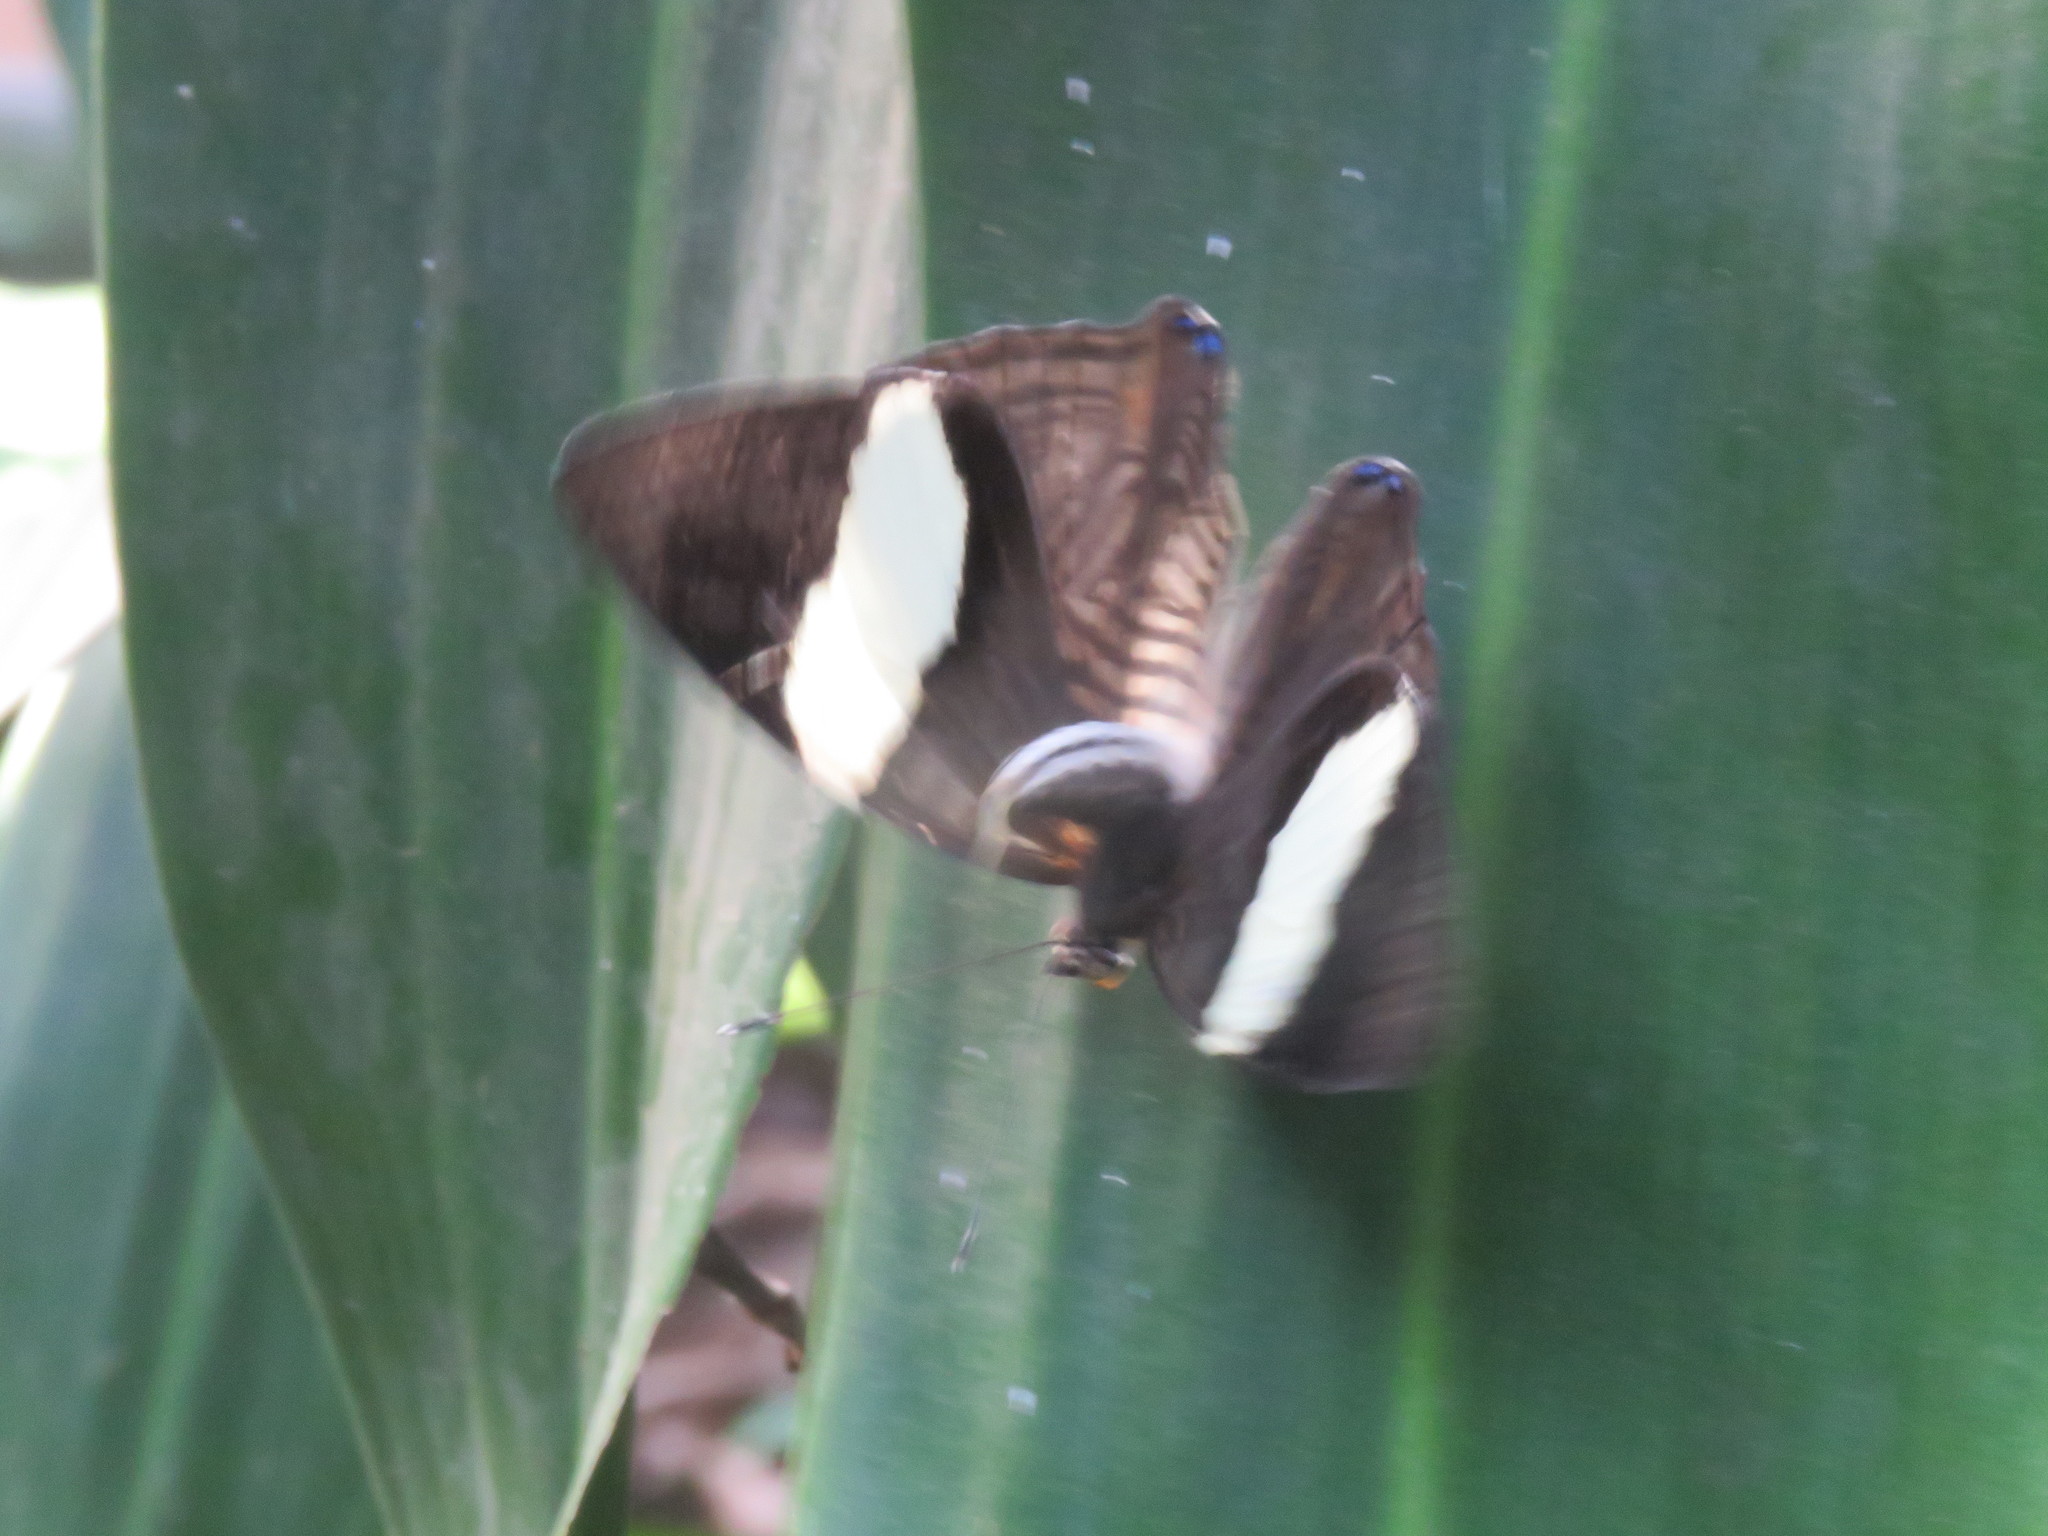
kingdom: Animalia
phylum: Arthropoda
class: Insecta
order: Lepidoptera
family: Nymphalidae
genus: Colobura
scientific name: Colobura dirce
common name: Dirce beauty
